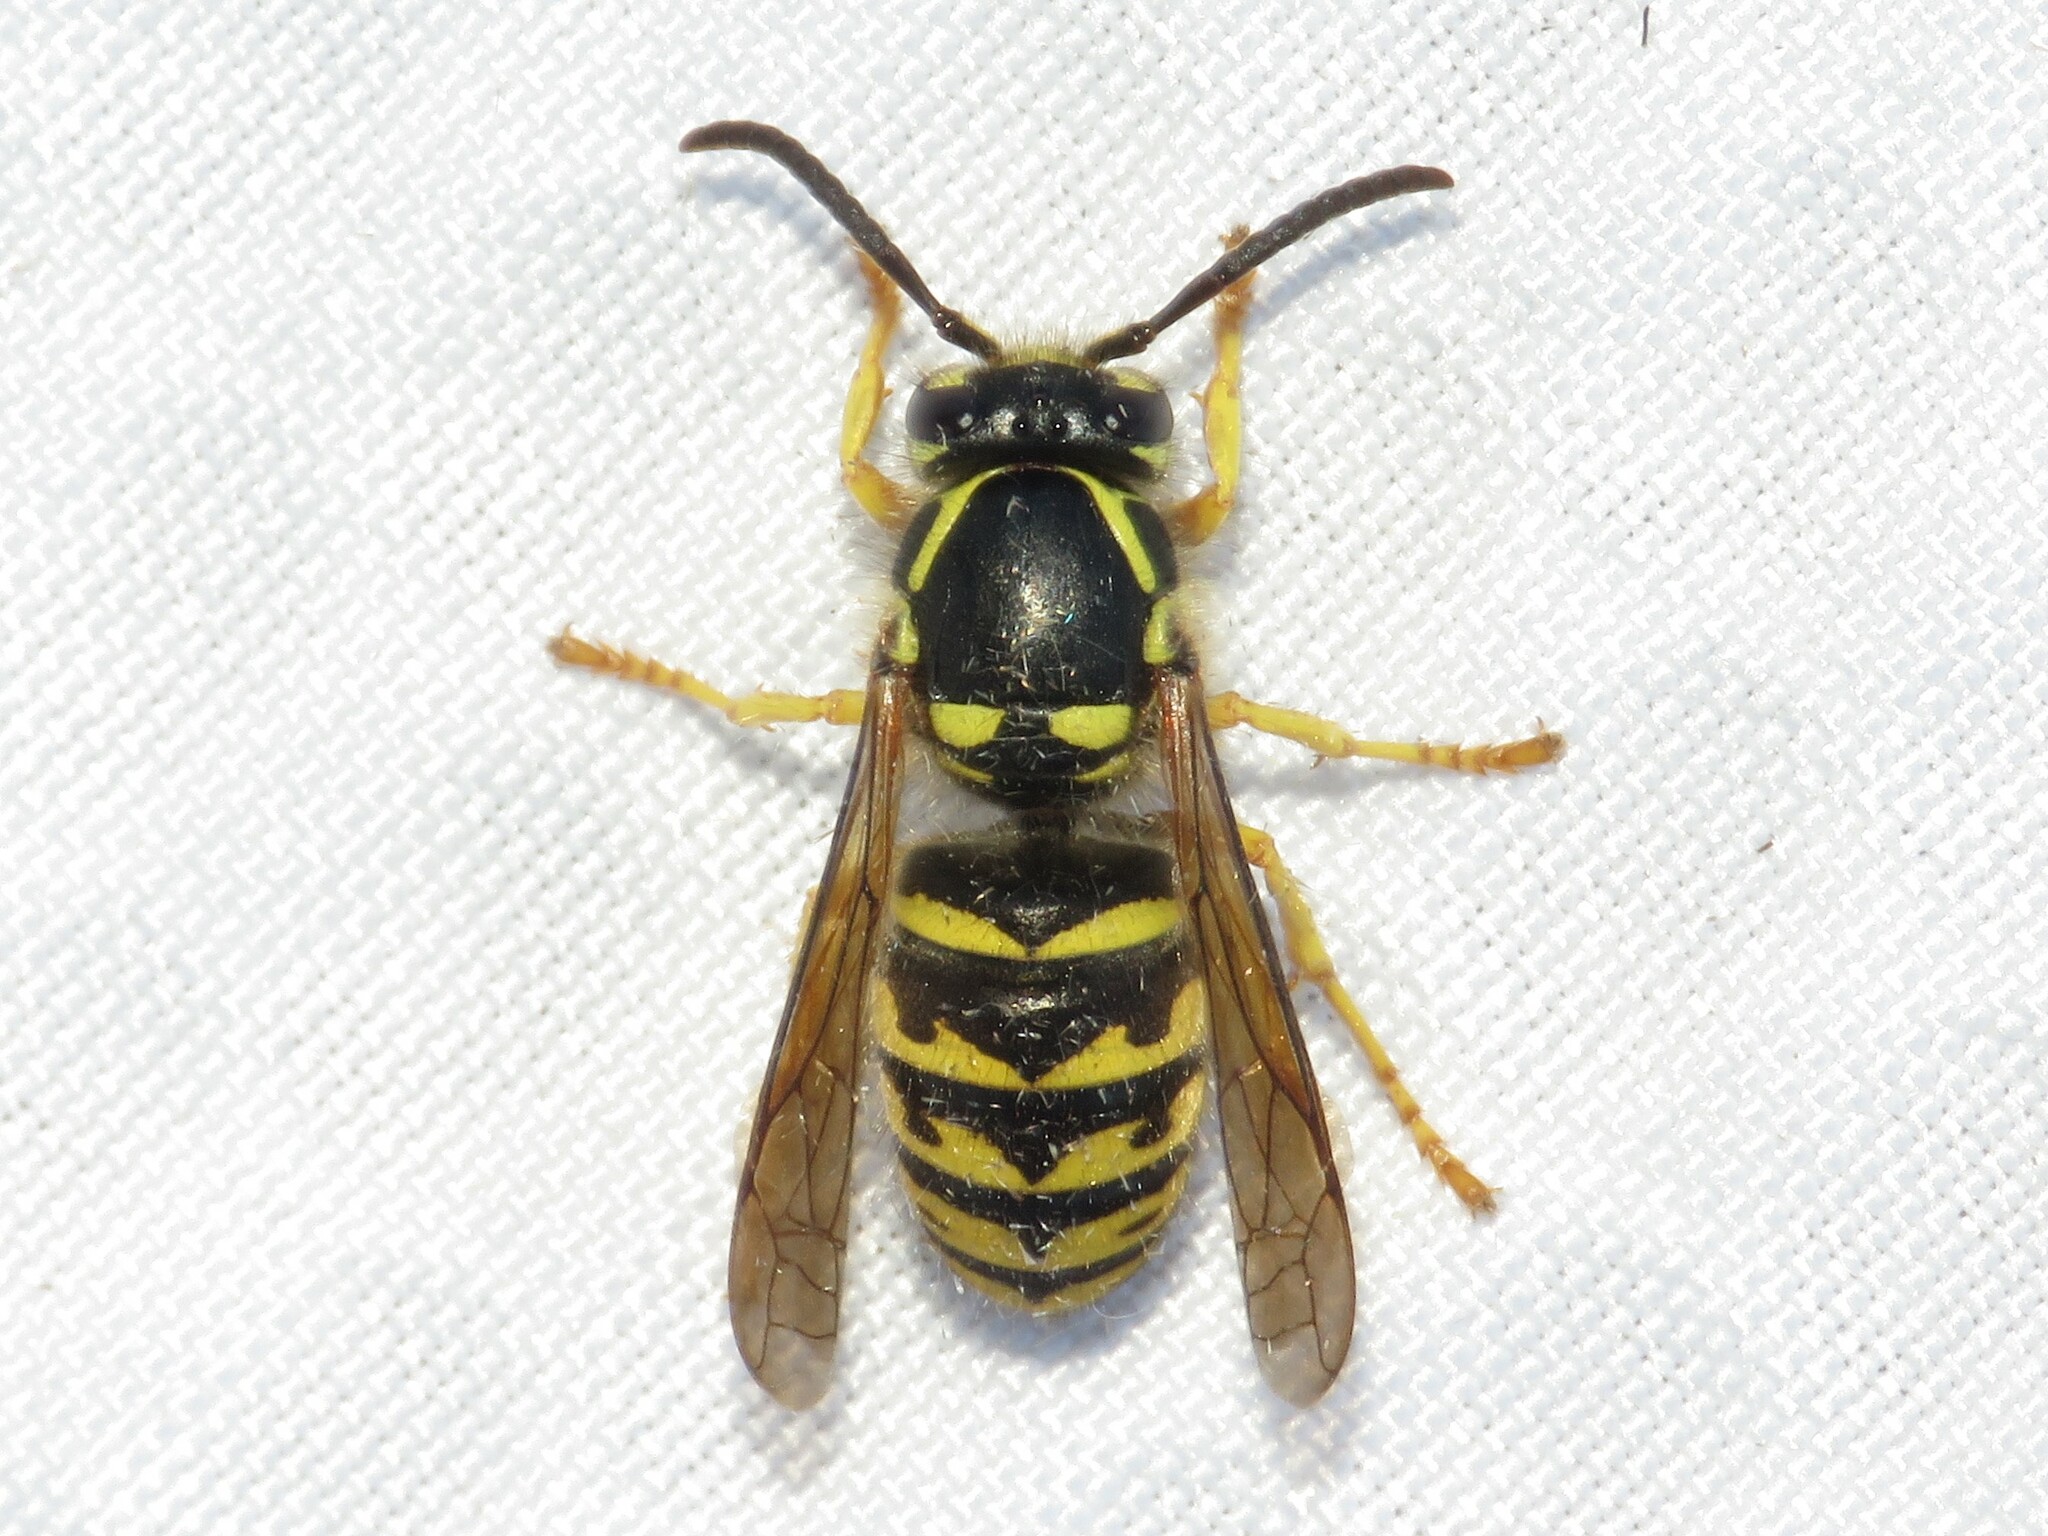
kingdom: Animalia
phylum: Arthropoda
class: Insecta
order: Hymenoptera
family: Vespidae
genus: Dolichovespula
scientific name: Dolichovespula arenaria
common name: Aerial yellowjacket
